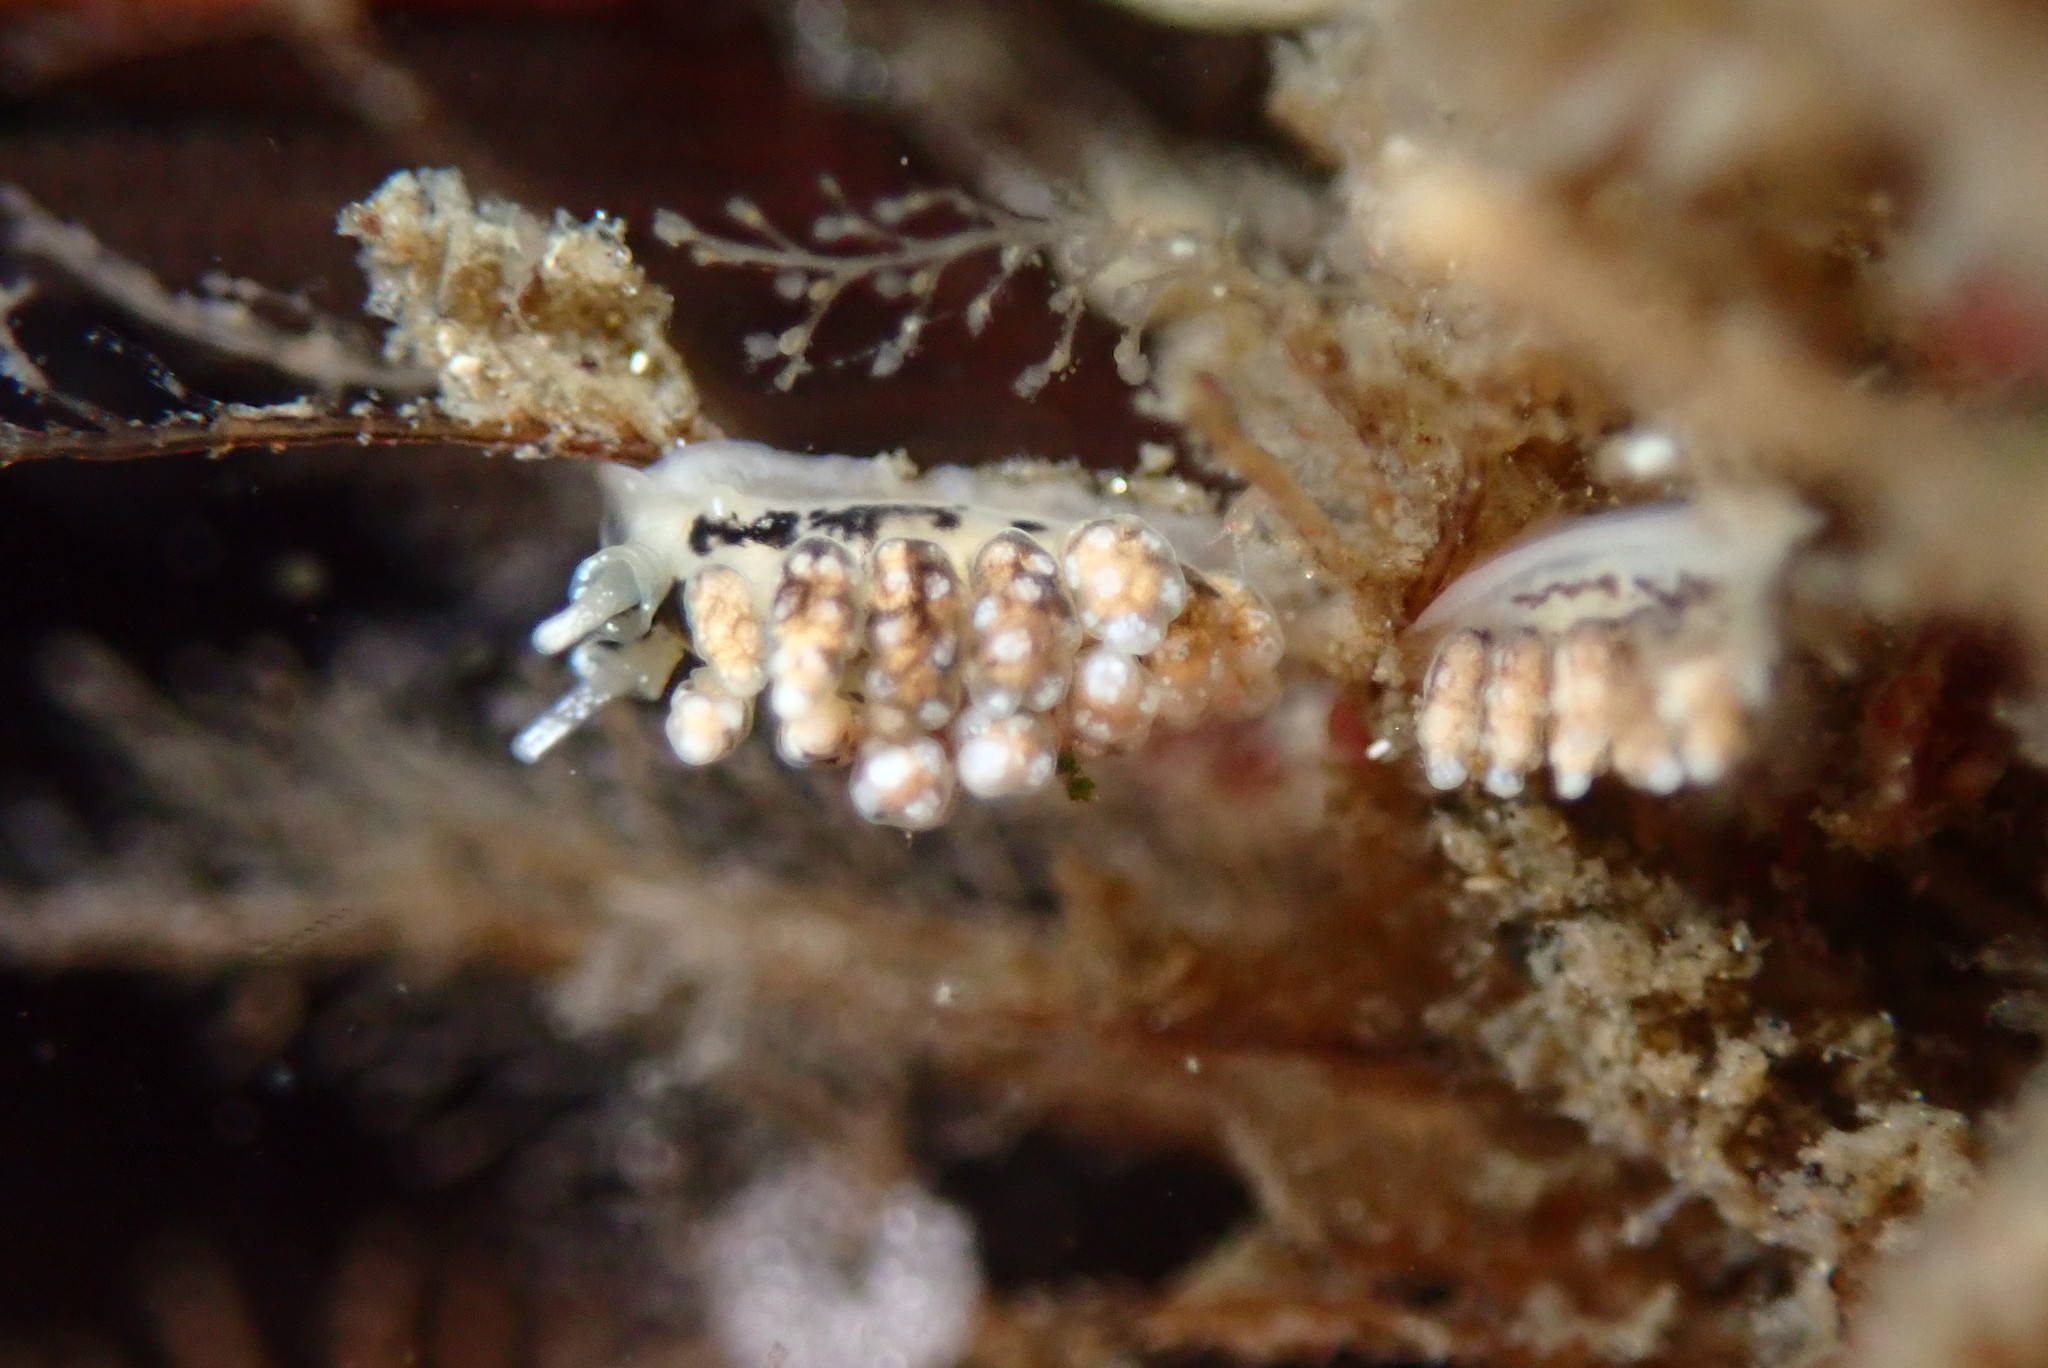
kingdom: Animalia
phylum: Mollusca
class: Gastropoda
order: Nudibranchia
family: Dotidae
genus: Doto
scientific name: Doto kya
